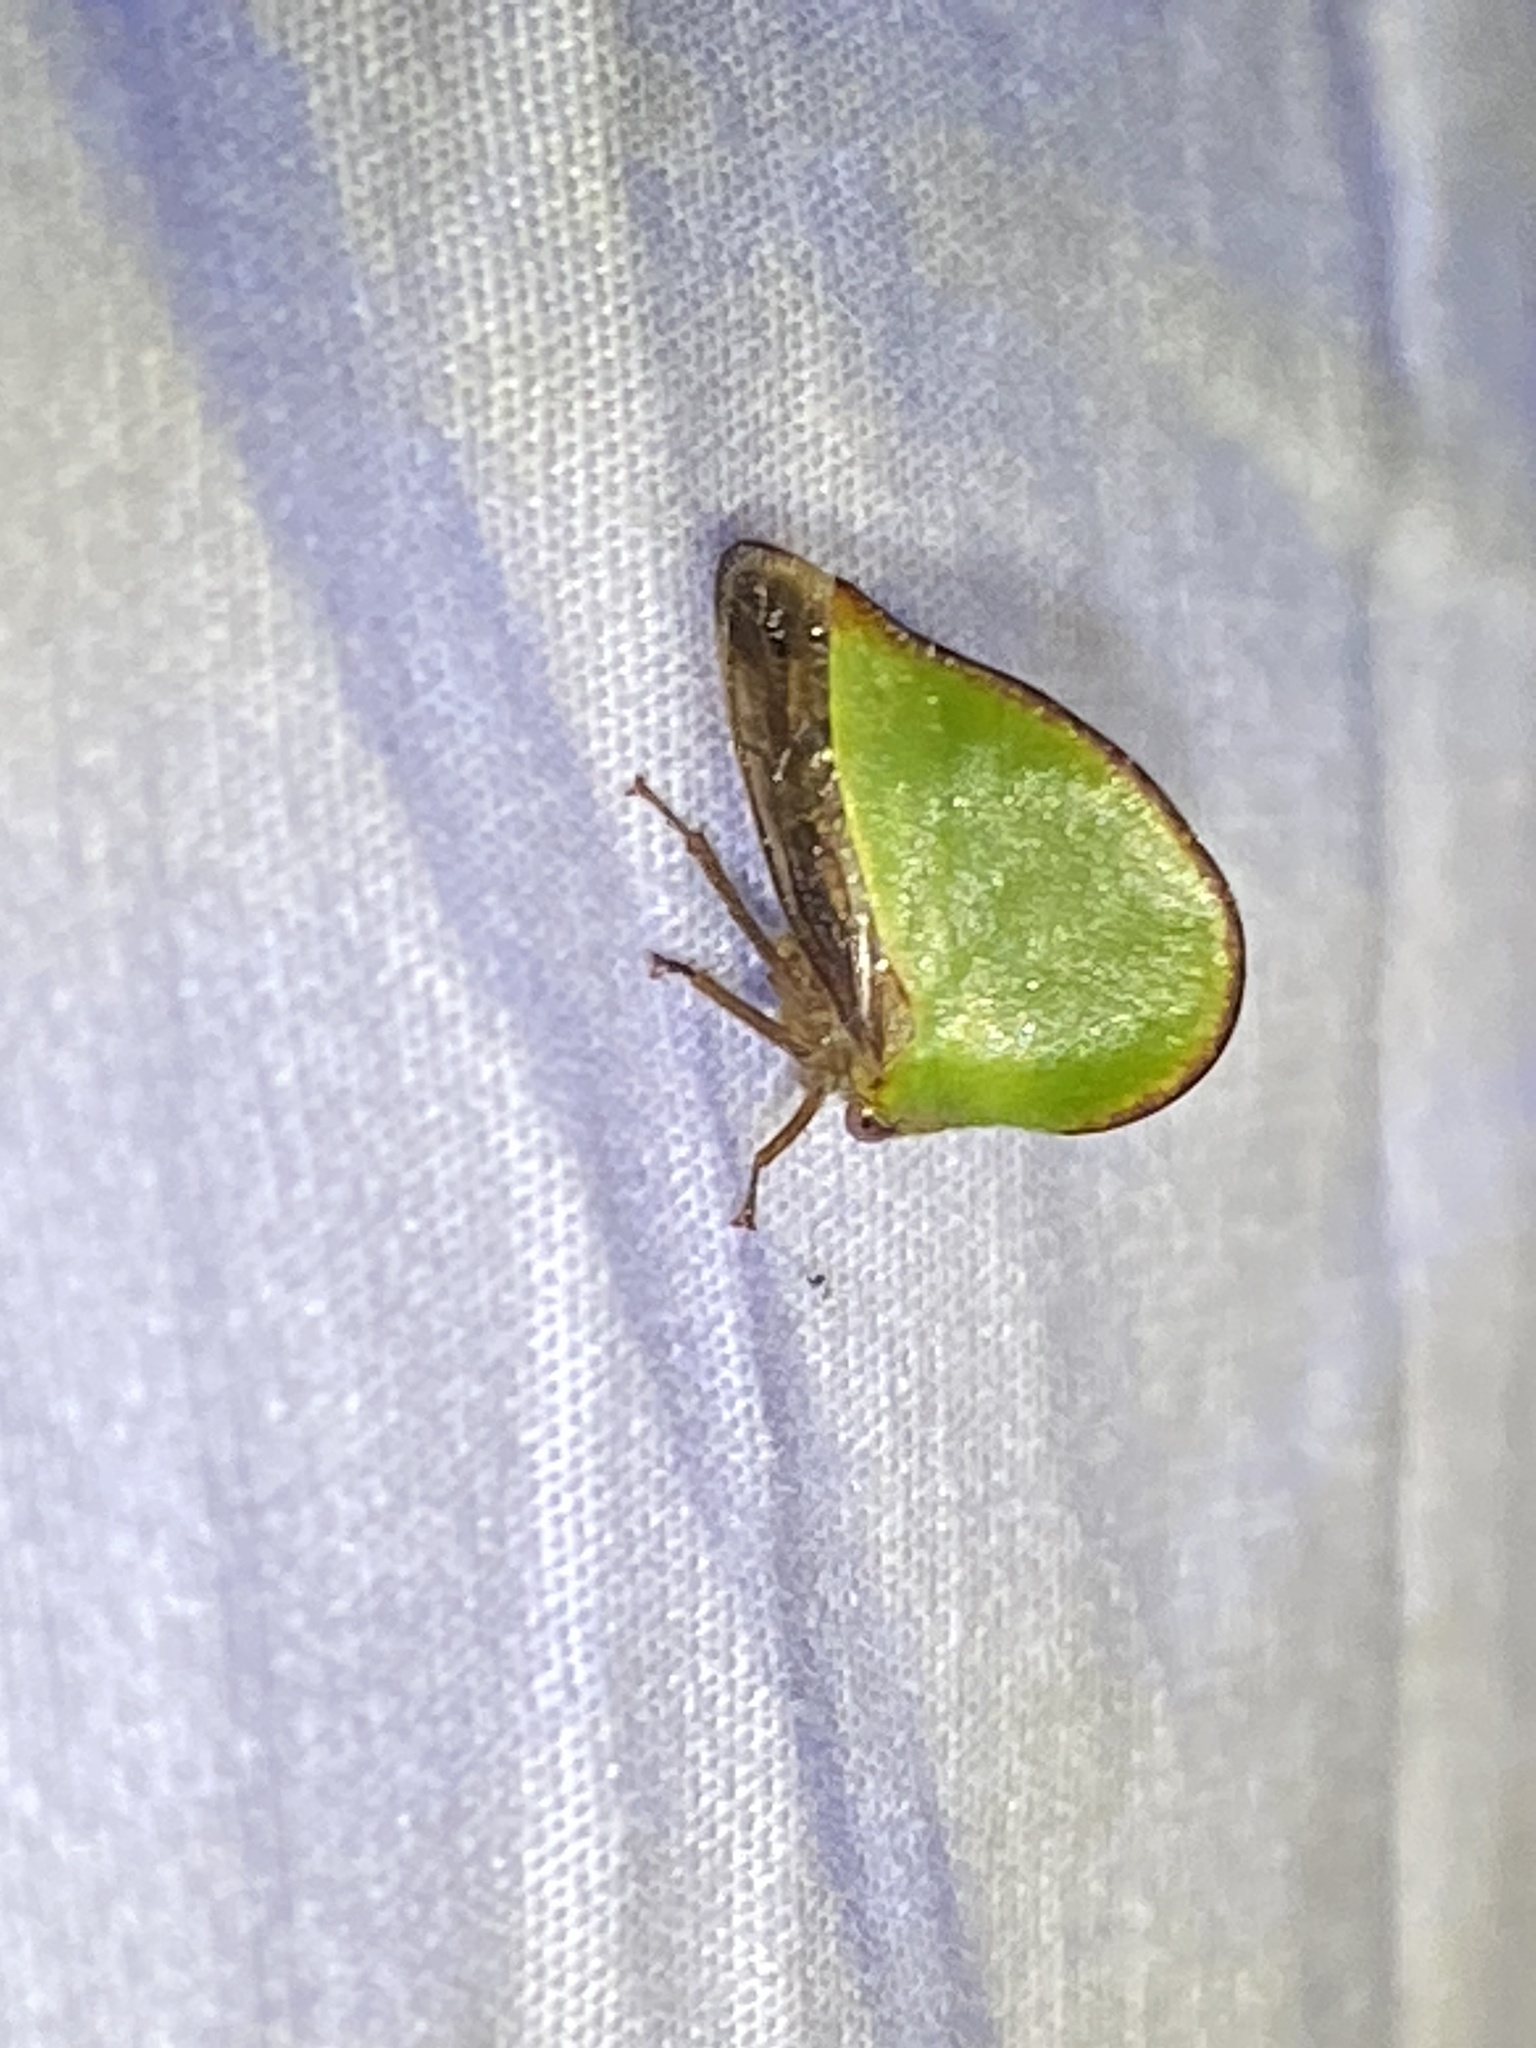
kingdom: Animalia
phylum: Arthropoda
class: Insecta
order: Hemiptera
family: Membracidae
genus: Archasia
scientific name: Archasia belfragei
